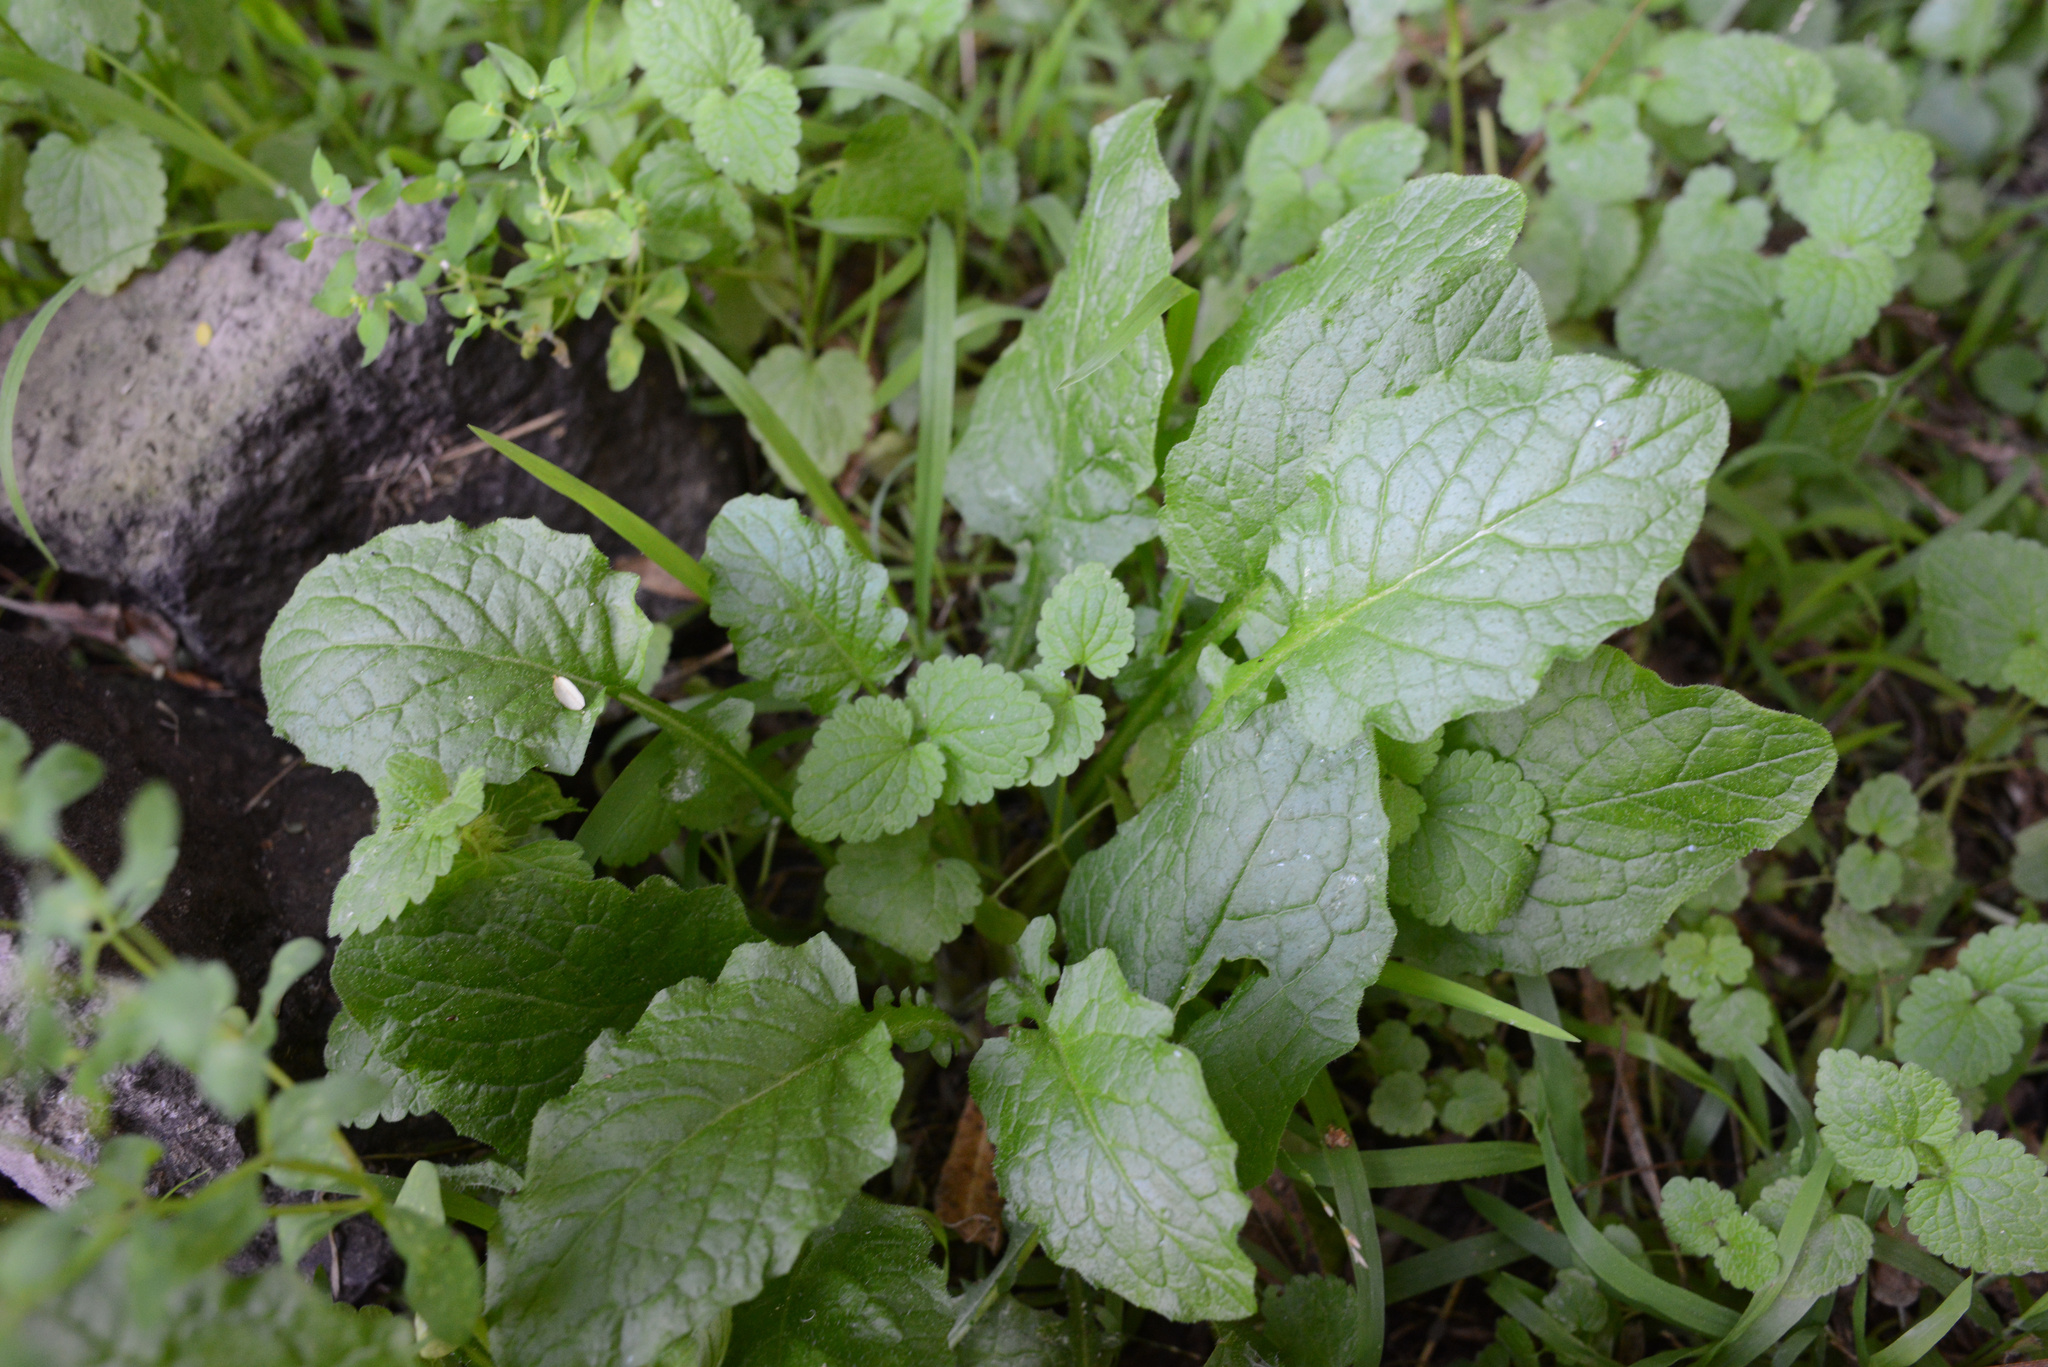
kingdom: Plantae
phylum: Tracheophyta
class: Magnoliopsida
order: Asterales
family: Asteraceae
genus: Lapsana
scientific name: Lapsana communis
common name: Nipplewort
